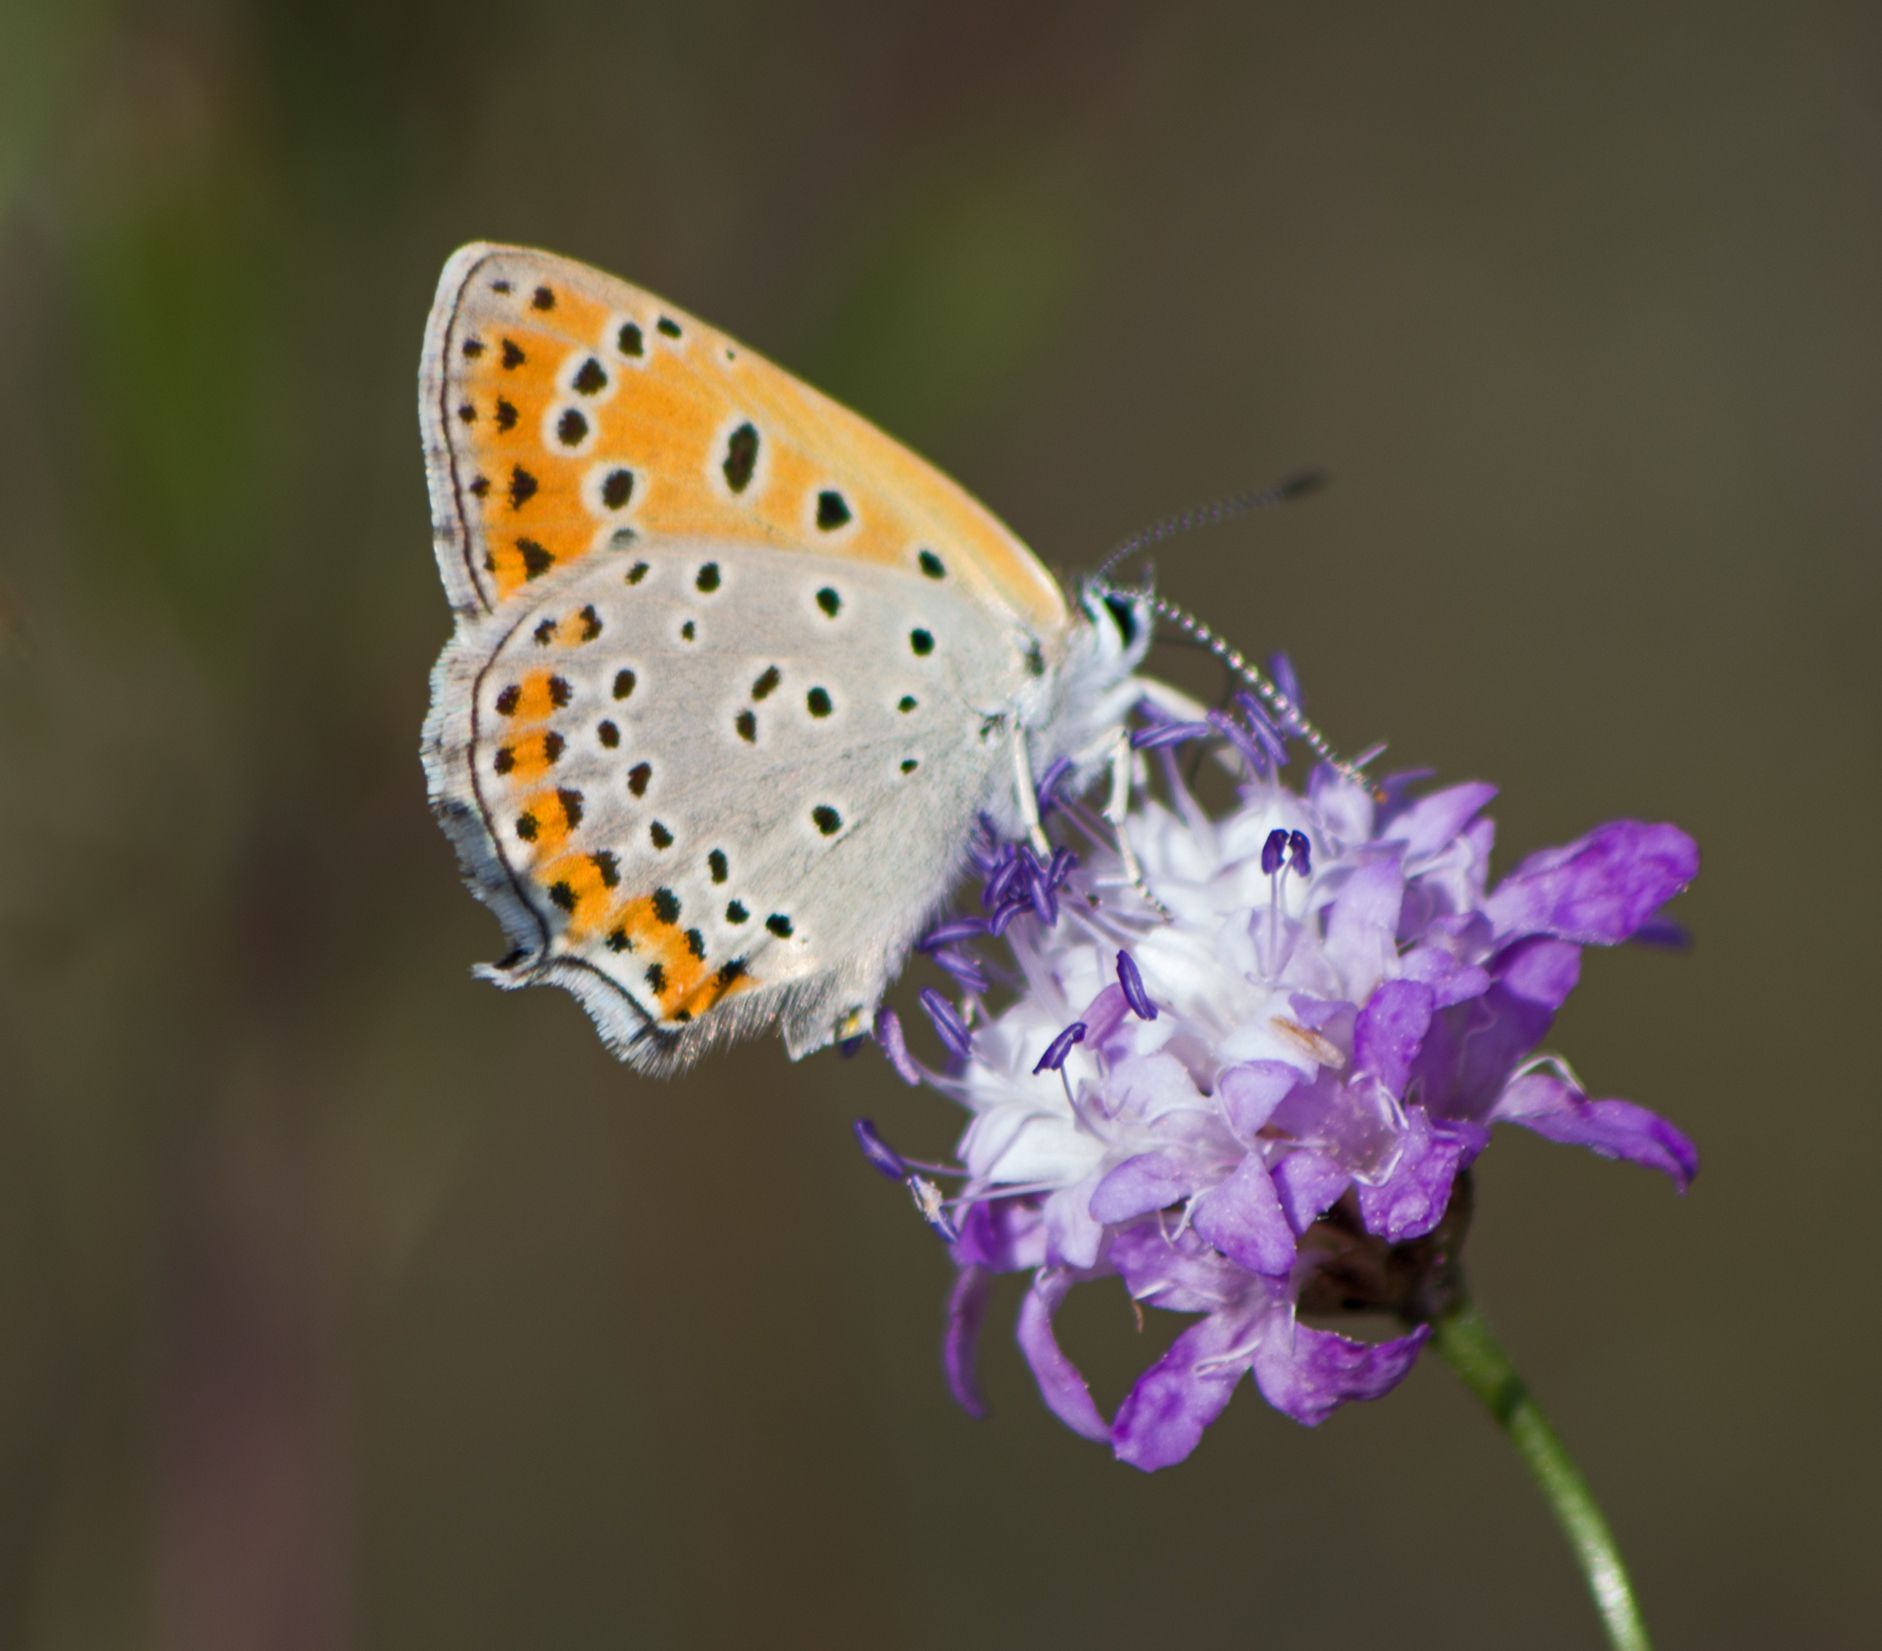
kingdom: Animalia
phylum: Arthropoda
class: Insecta
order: Lepidoptera
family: Lycaenidae
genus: Thersamonia
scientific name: Thersamonia thersamon
